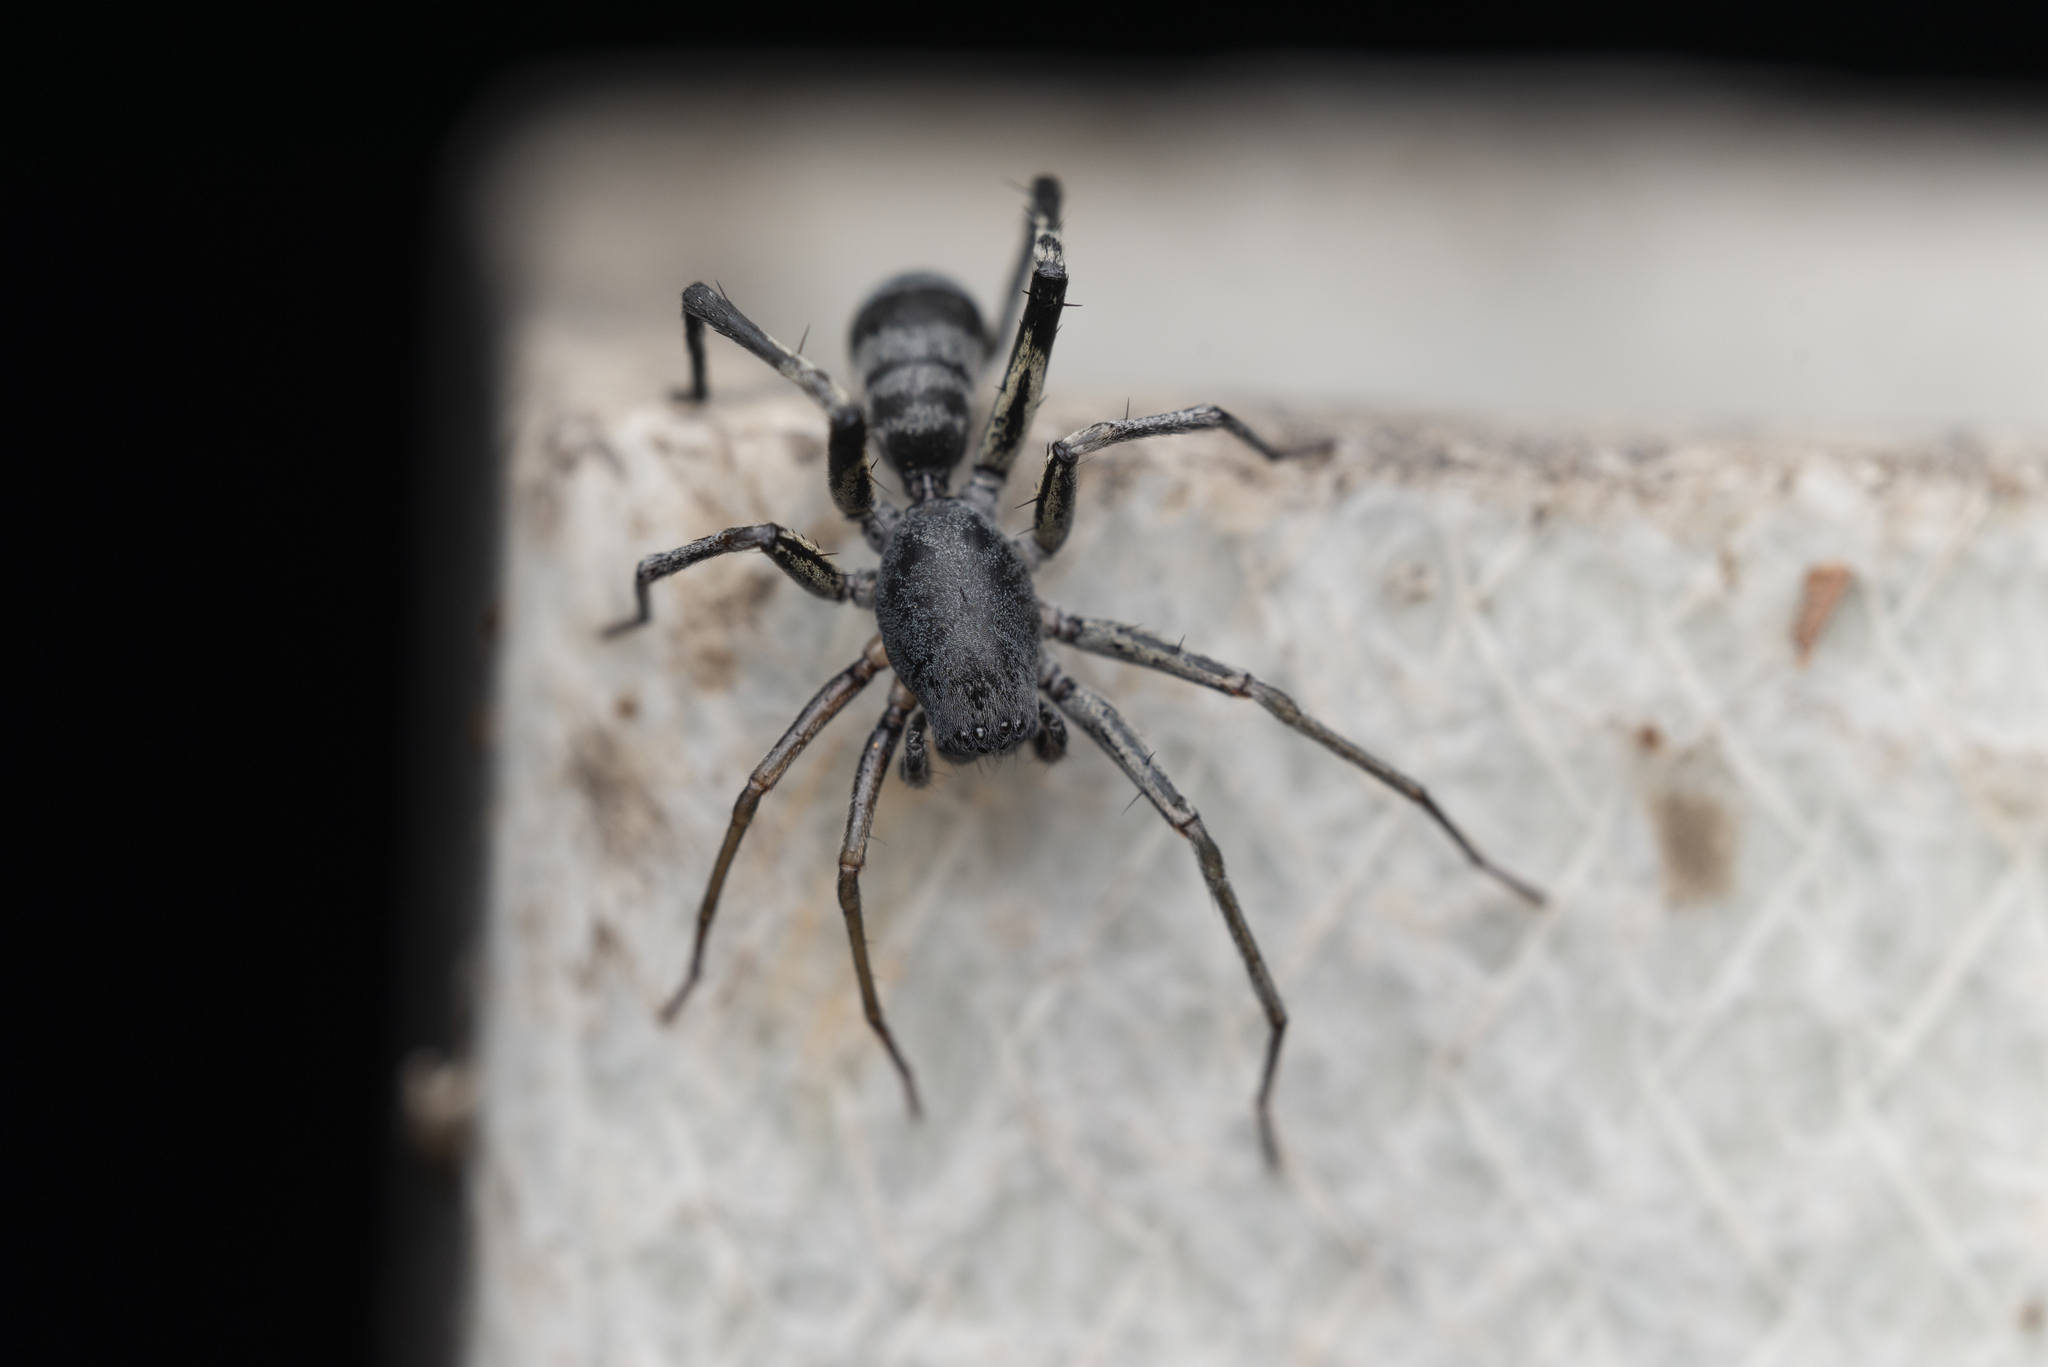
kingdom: Animalia
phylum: Arthropoda
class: Arachnida
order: Araneae
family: Corinnidae
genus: Corinnomma
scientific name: Corinnomma severum
